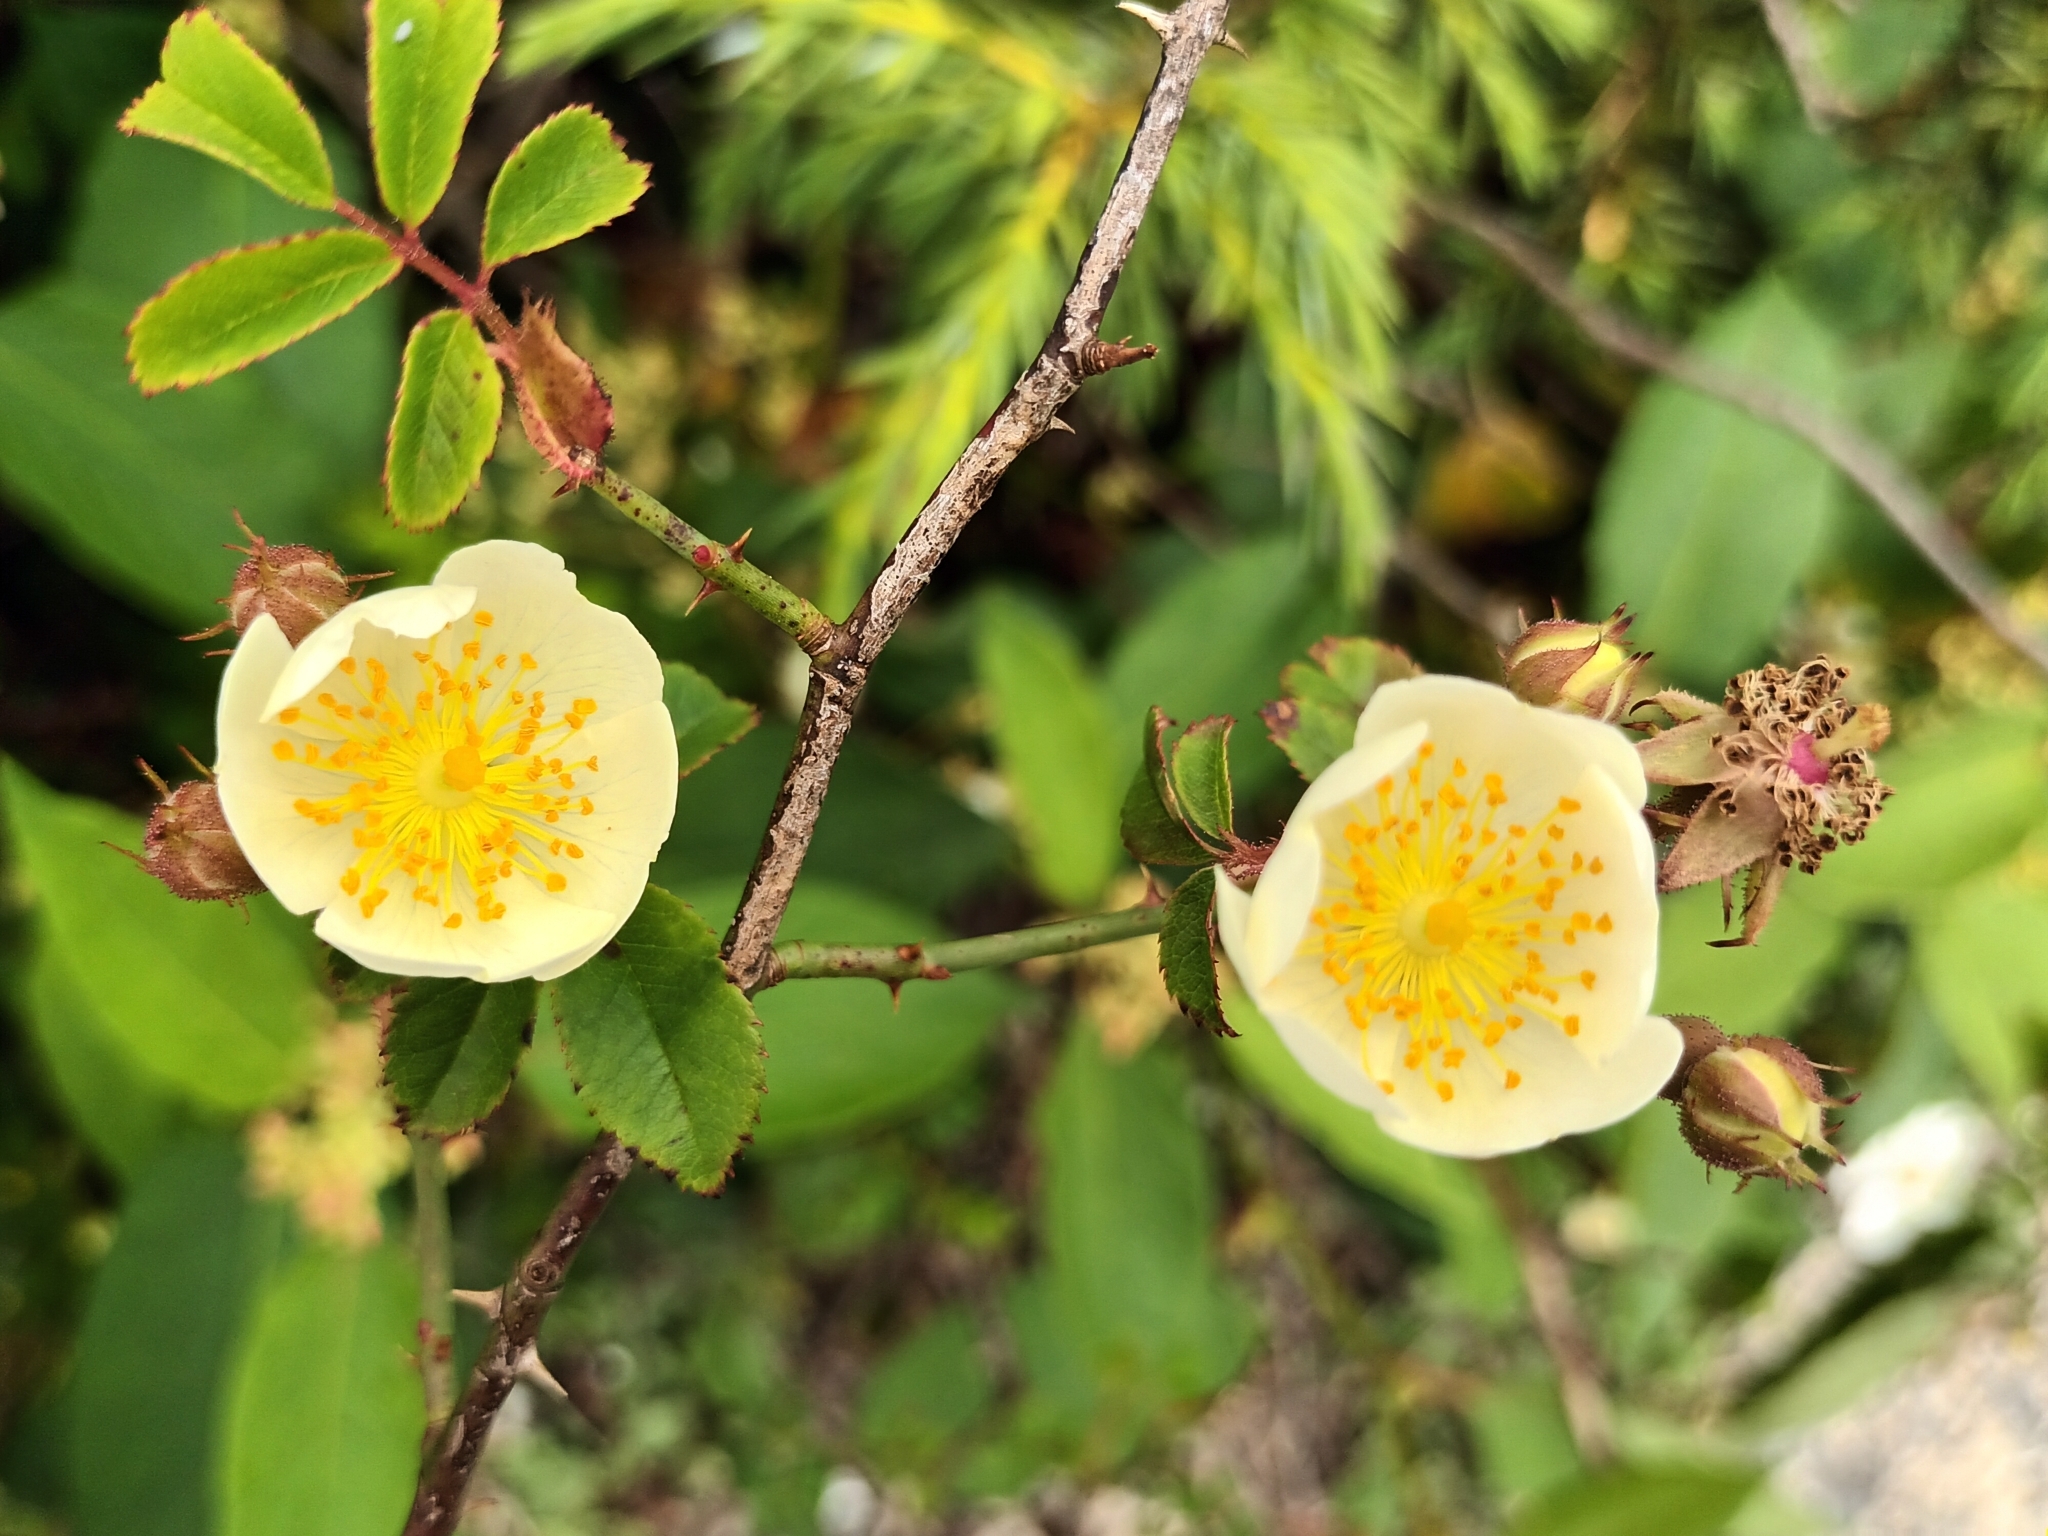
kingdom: Plantae
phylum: Tracheophyta
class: Magnoliopsida
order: Rosales
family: Rosaceae
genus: Rosa
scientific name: Rosa transmorrisonensis
